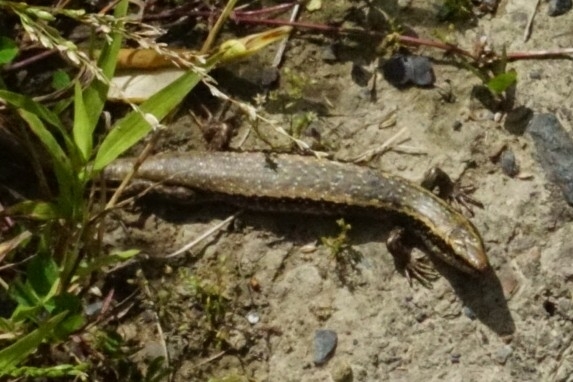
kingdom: Animalia
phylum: Chordata
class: Squamata
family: Scincidae
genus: Oligosoma
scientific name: Oligosoma kokowai
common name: Northern spotted skink
